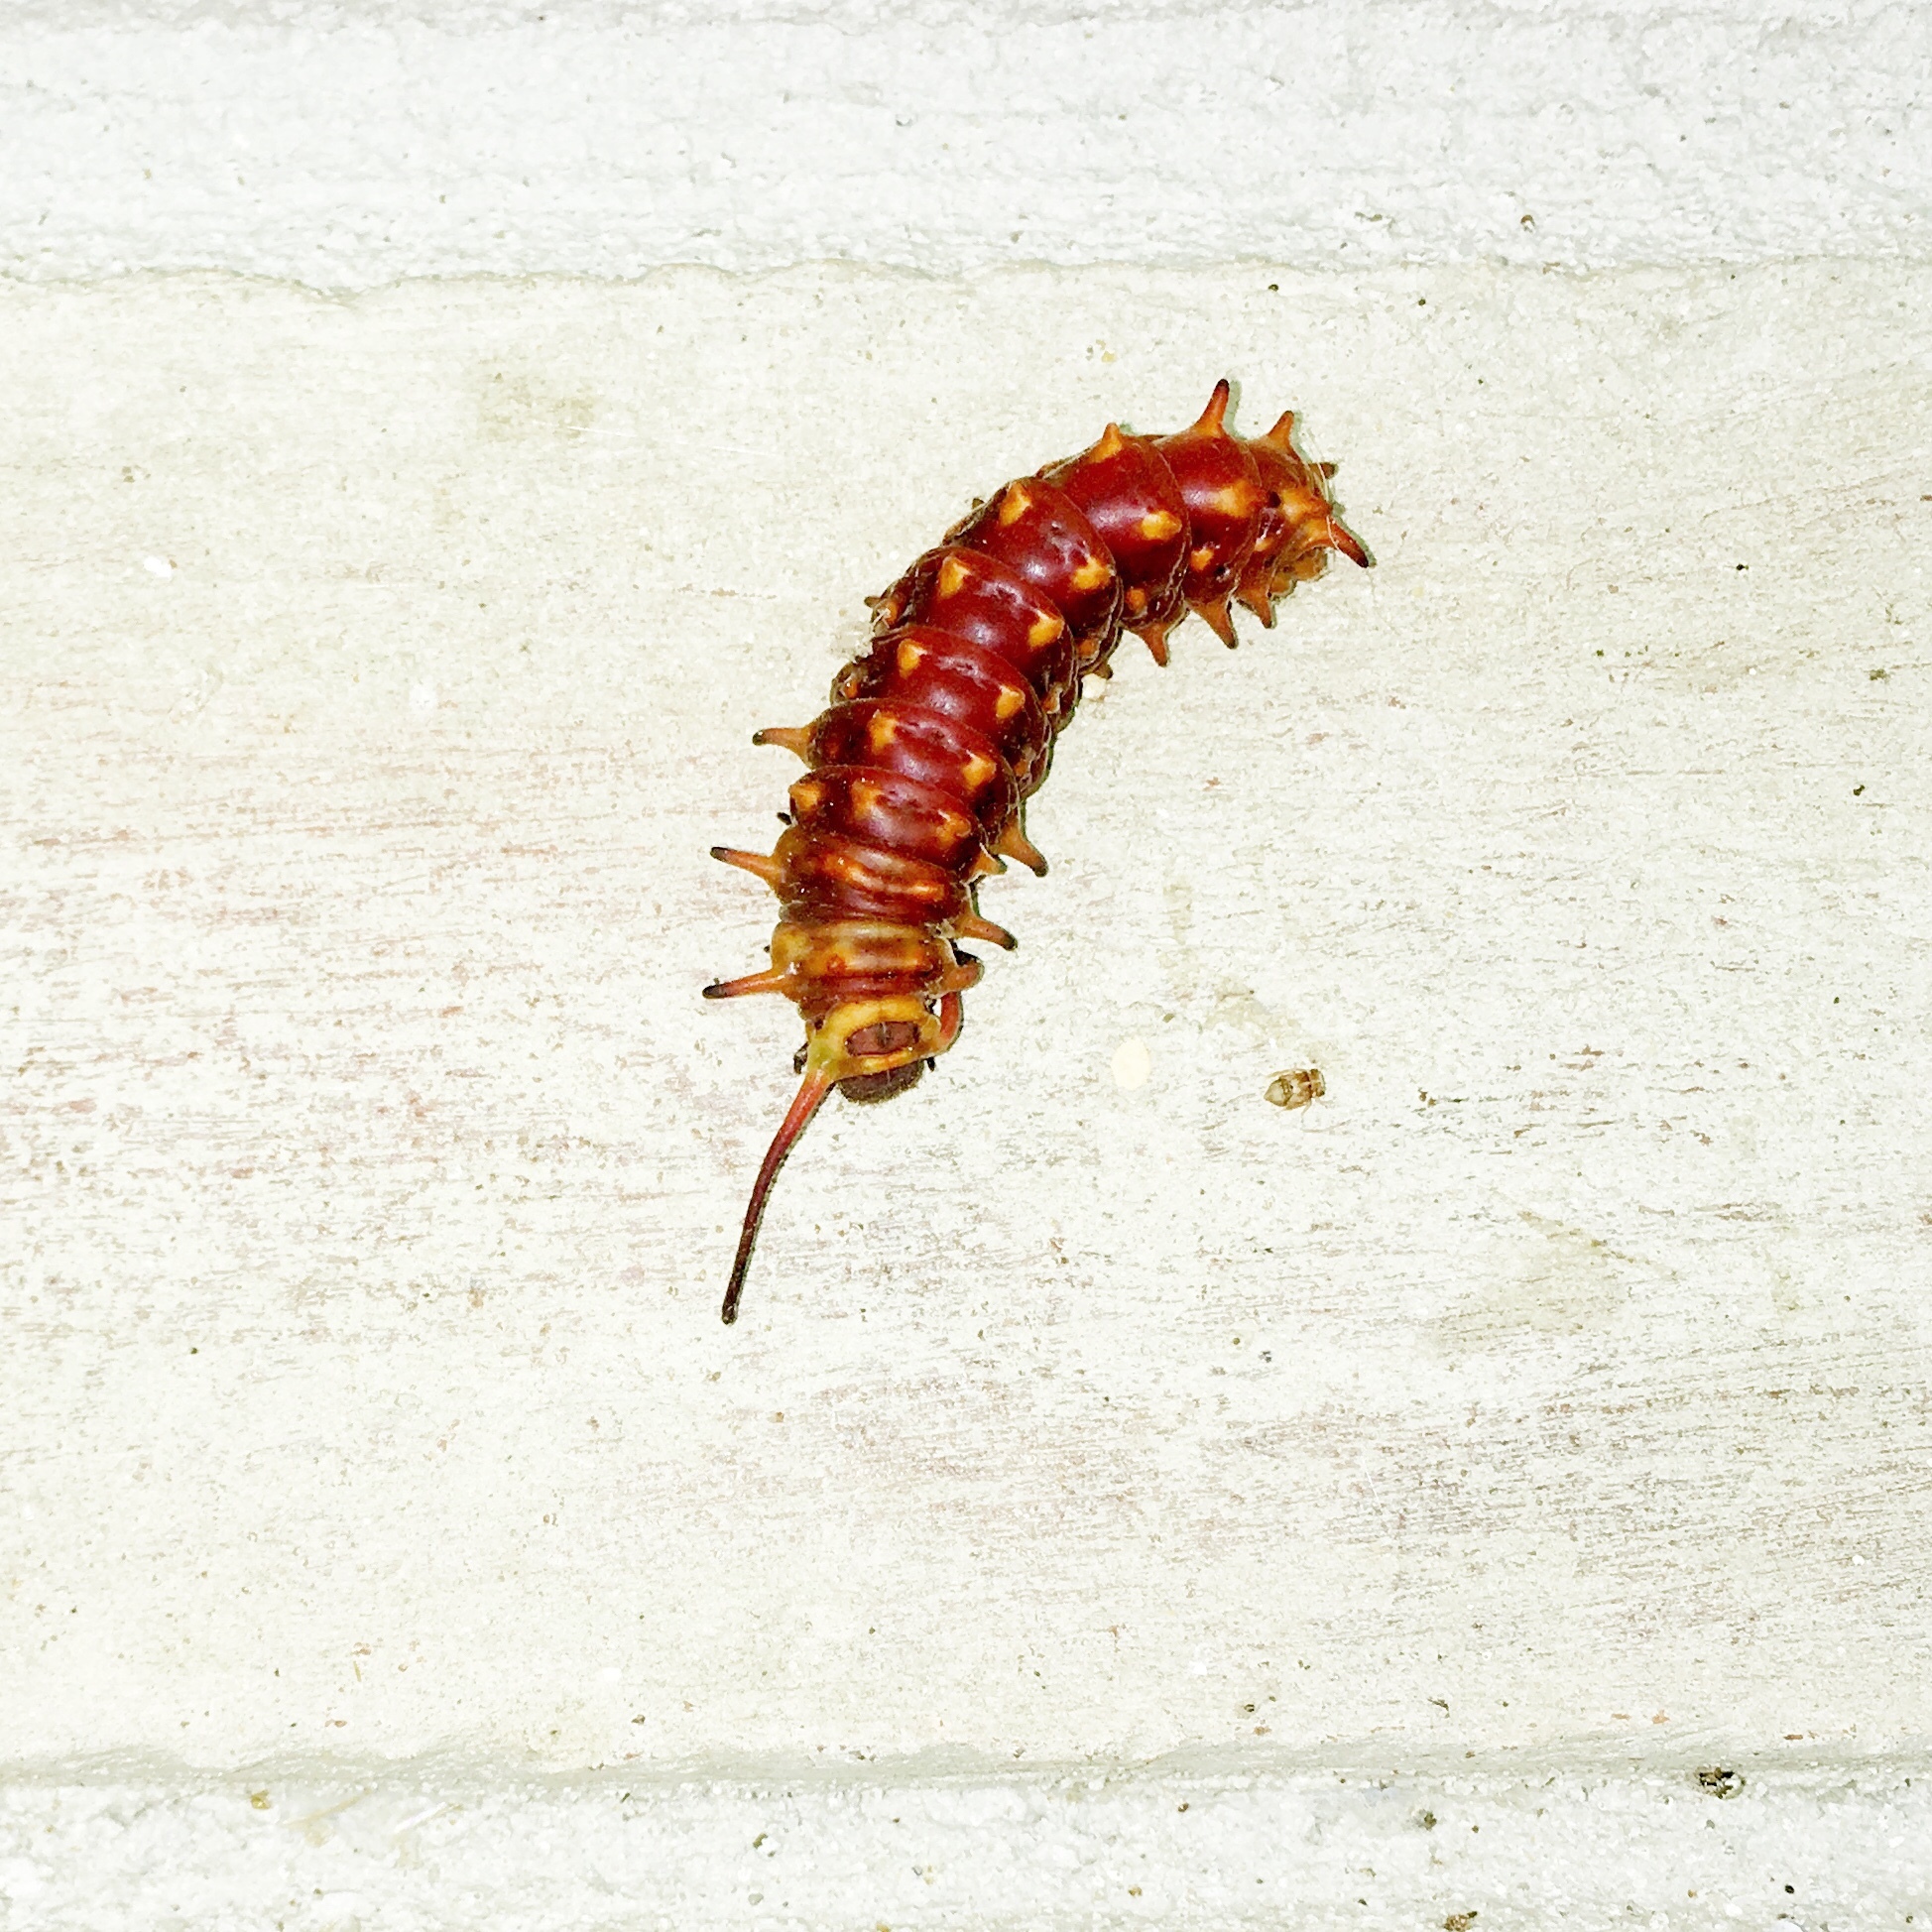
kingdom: Animalia
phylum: Arthropoda
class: Insecta
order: Lepidoptera
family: Papilionidae
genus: Battus
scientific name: Battus philenor
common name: Pipevine swallowtail
